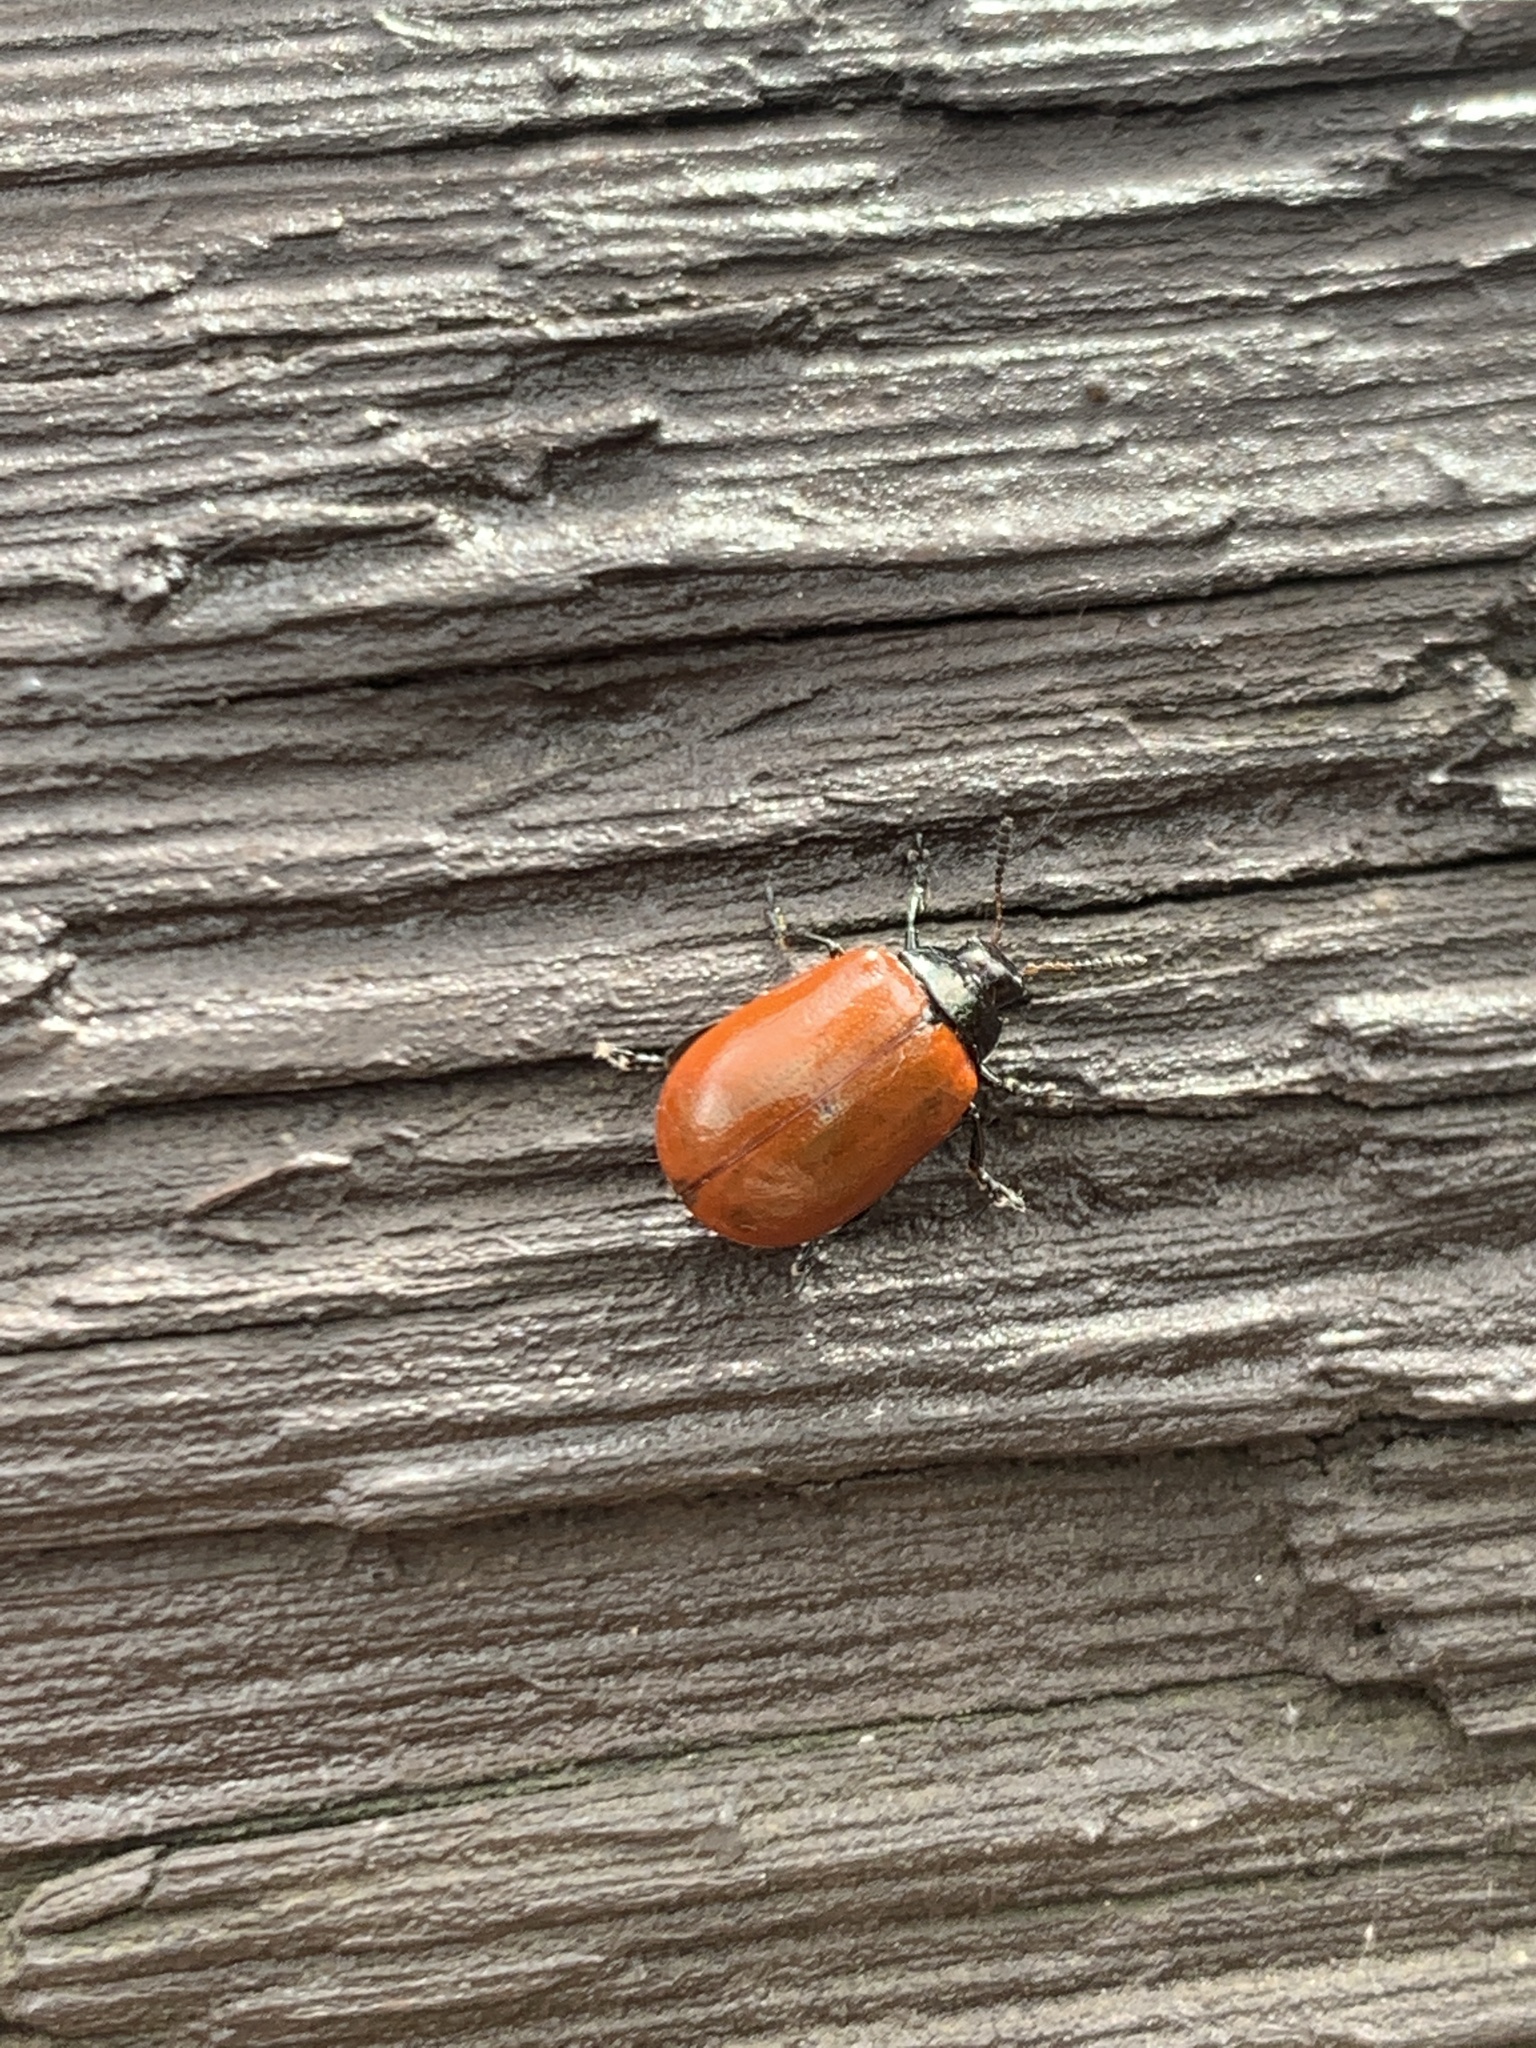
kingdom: Animalia
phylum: Arthropoda
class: Insecta
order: Coleoptera
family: Chrysomelidae
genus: Plagiodera
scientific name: Plagiodera
